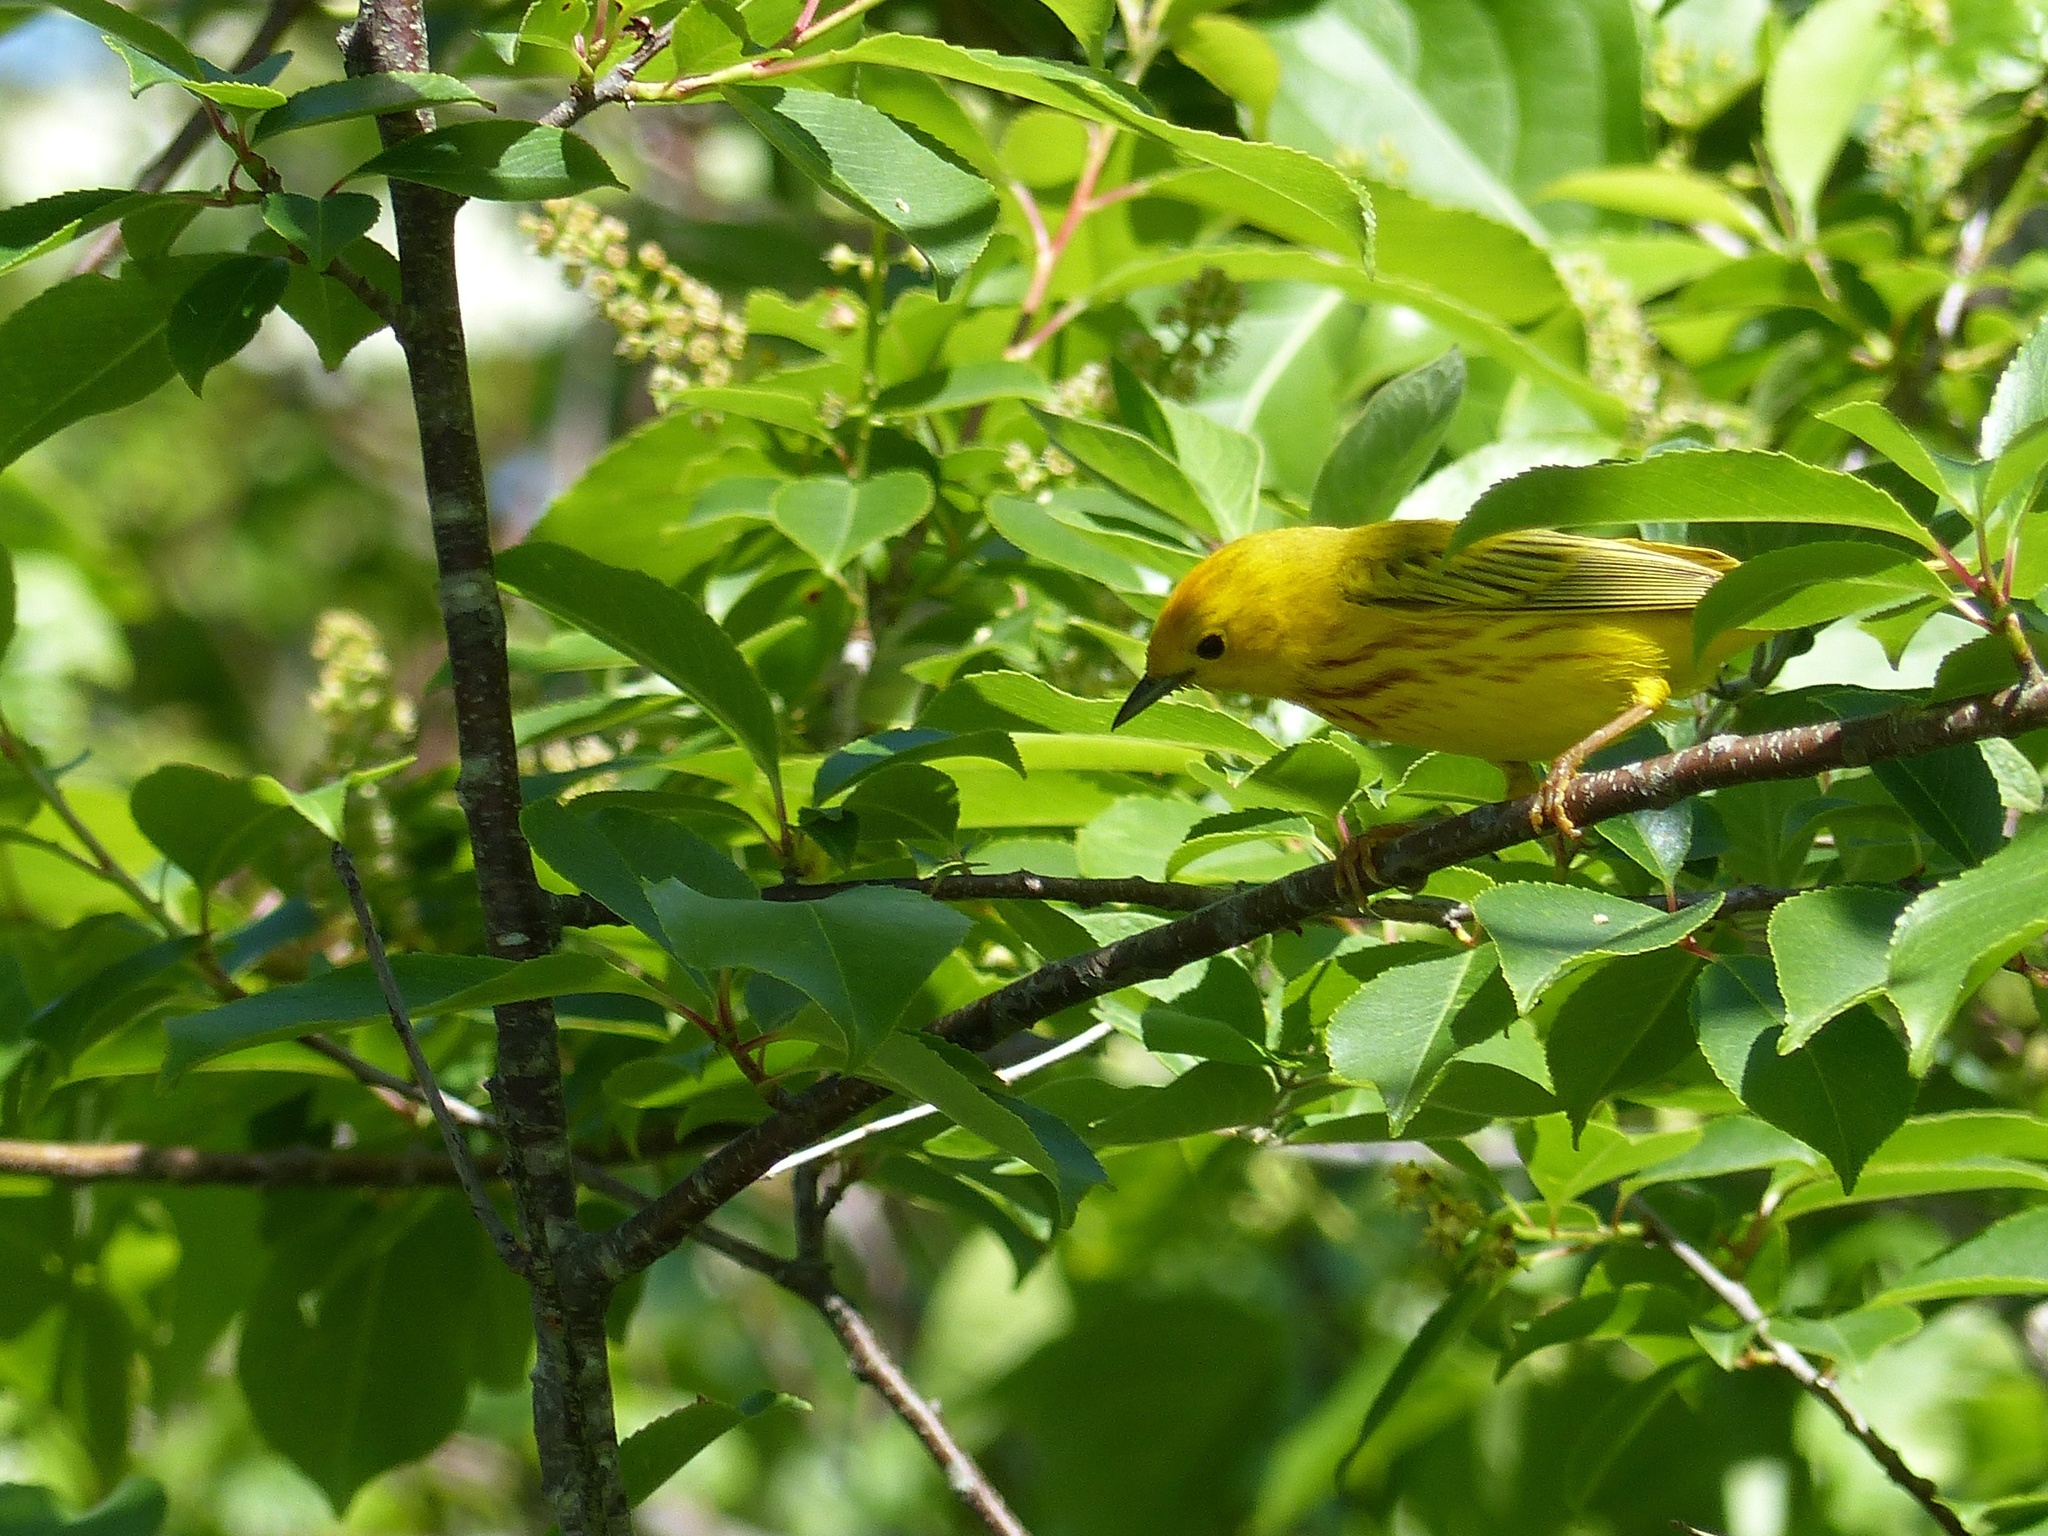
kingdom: Animalia
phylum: Chordata
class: Aves
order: Passeriformes
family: Parulidae
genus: Setophaga
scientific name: Setophaga petechia
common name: Yellow warbler
